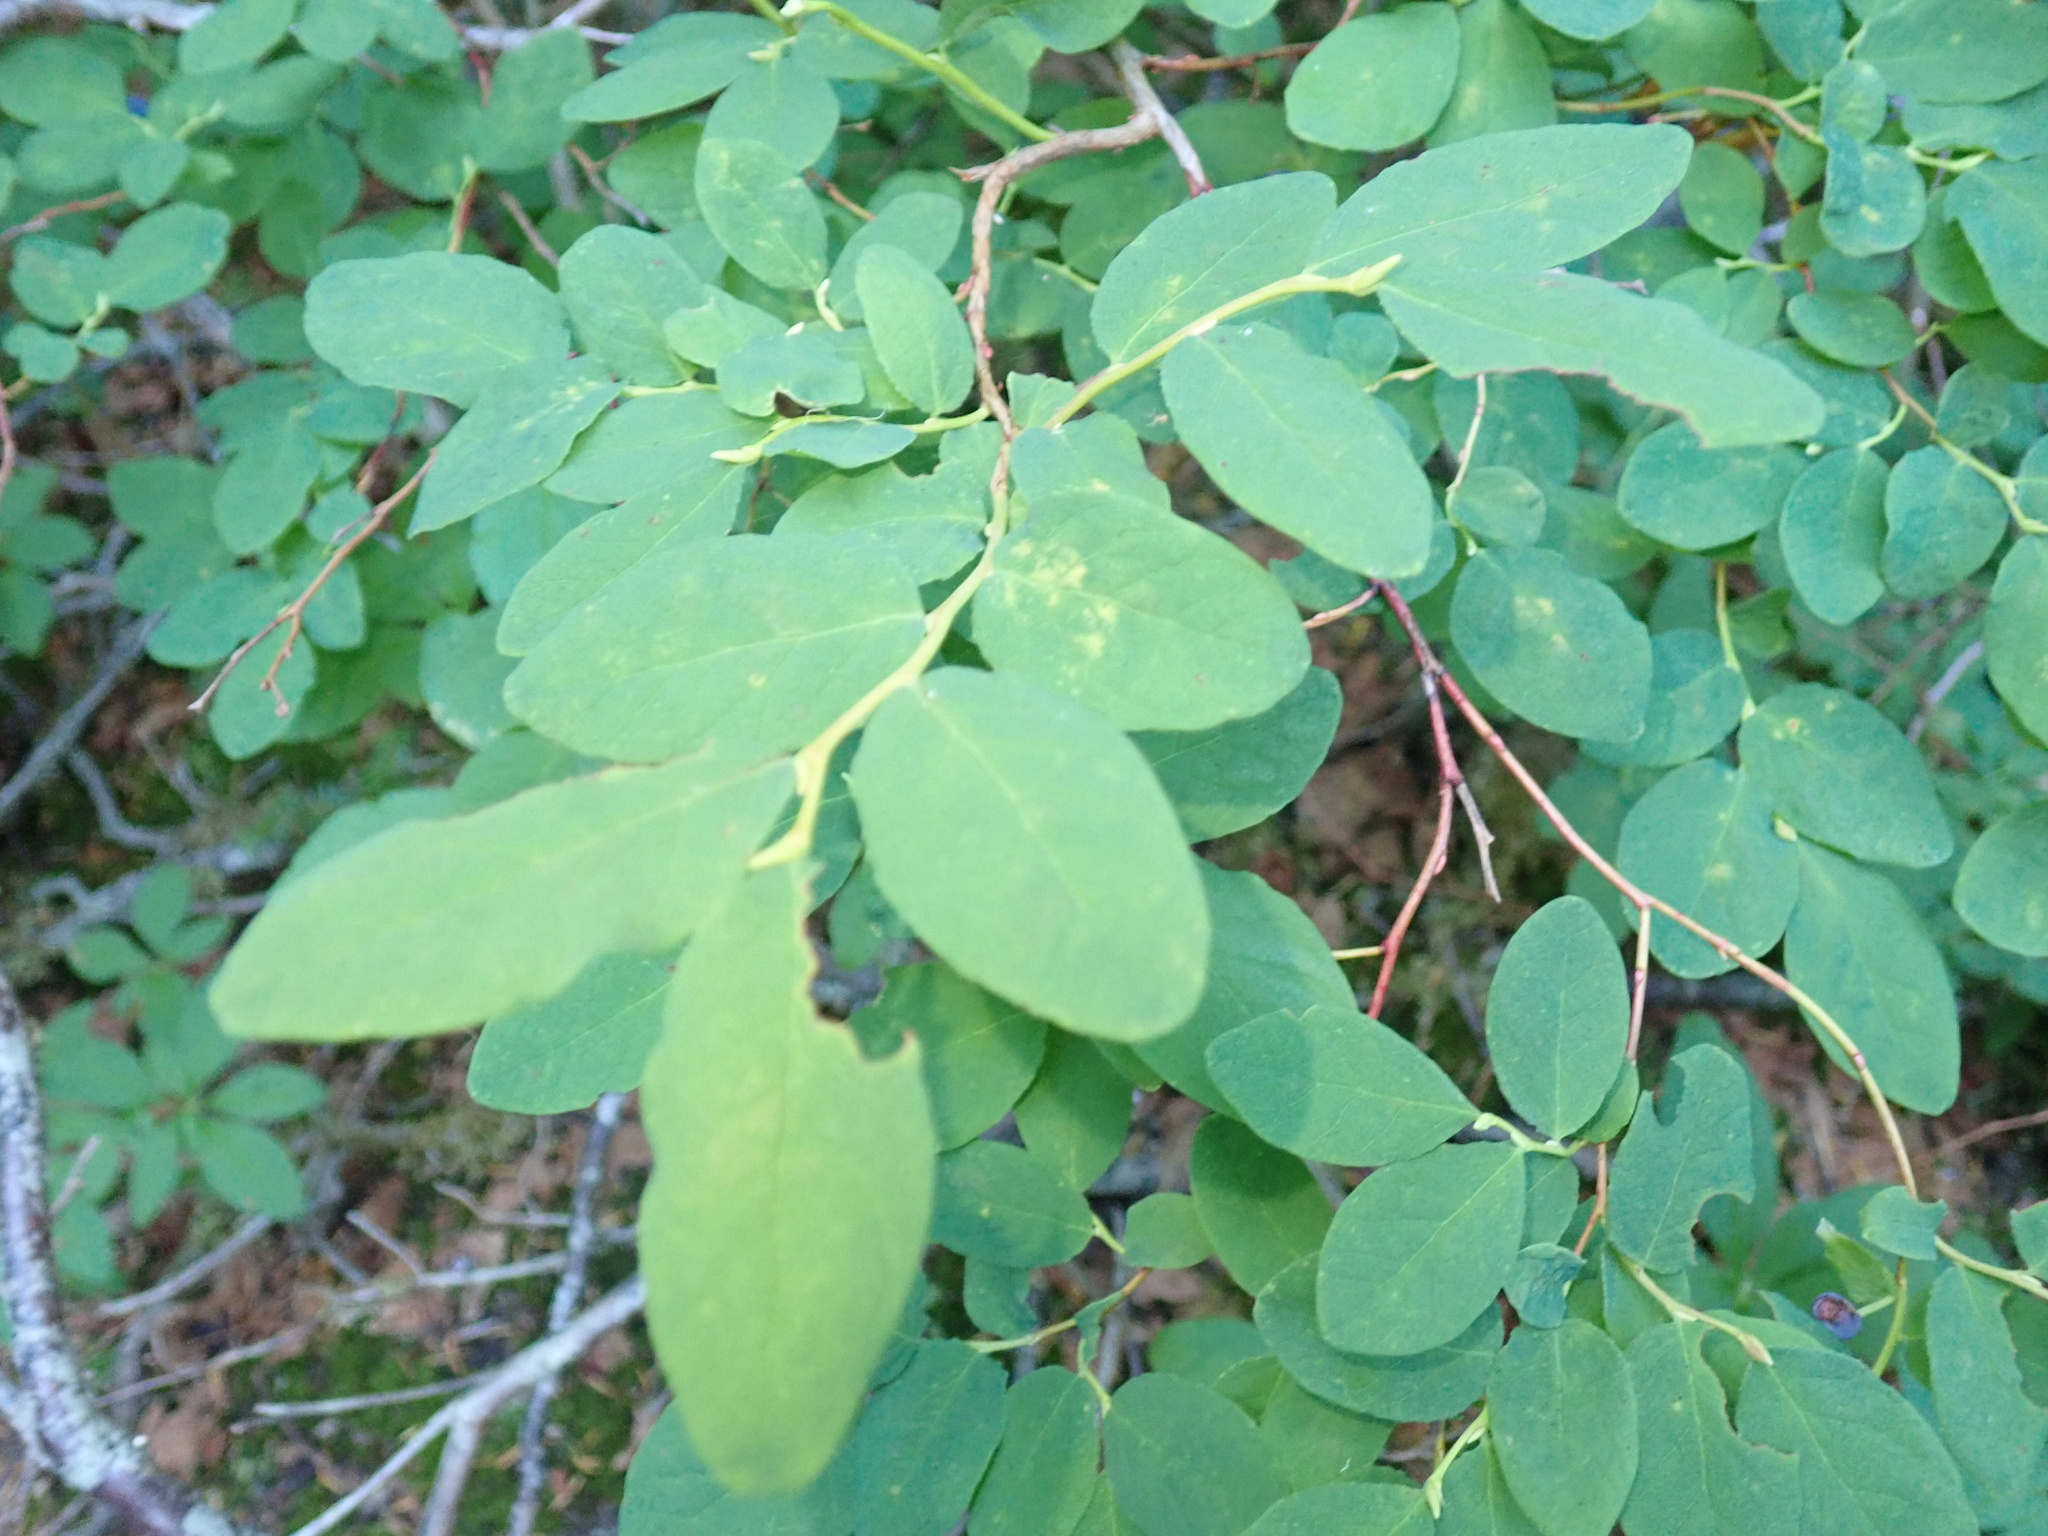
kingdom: Plantae
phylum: Tracheophyta
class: Magnoliopsida
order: Ericales
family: Ericaceae
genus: Vaccinium
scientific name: Vaccinium ovalifolium
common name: Early blueberry
